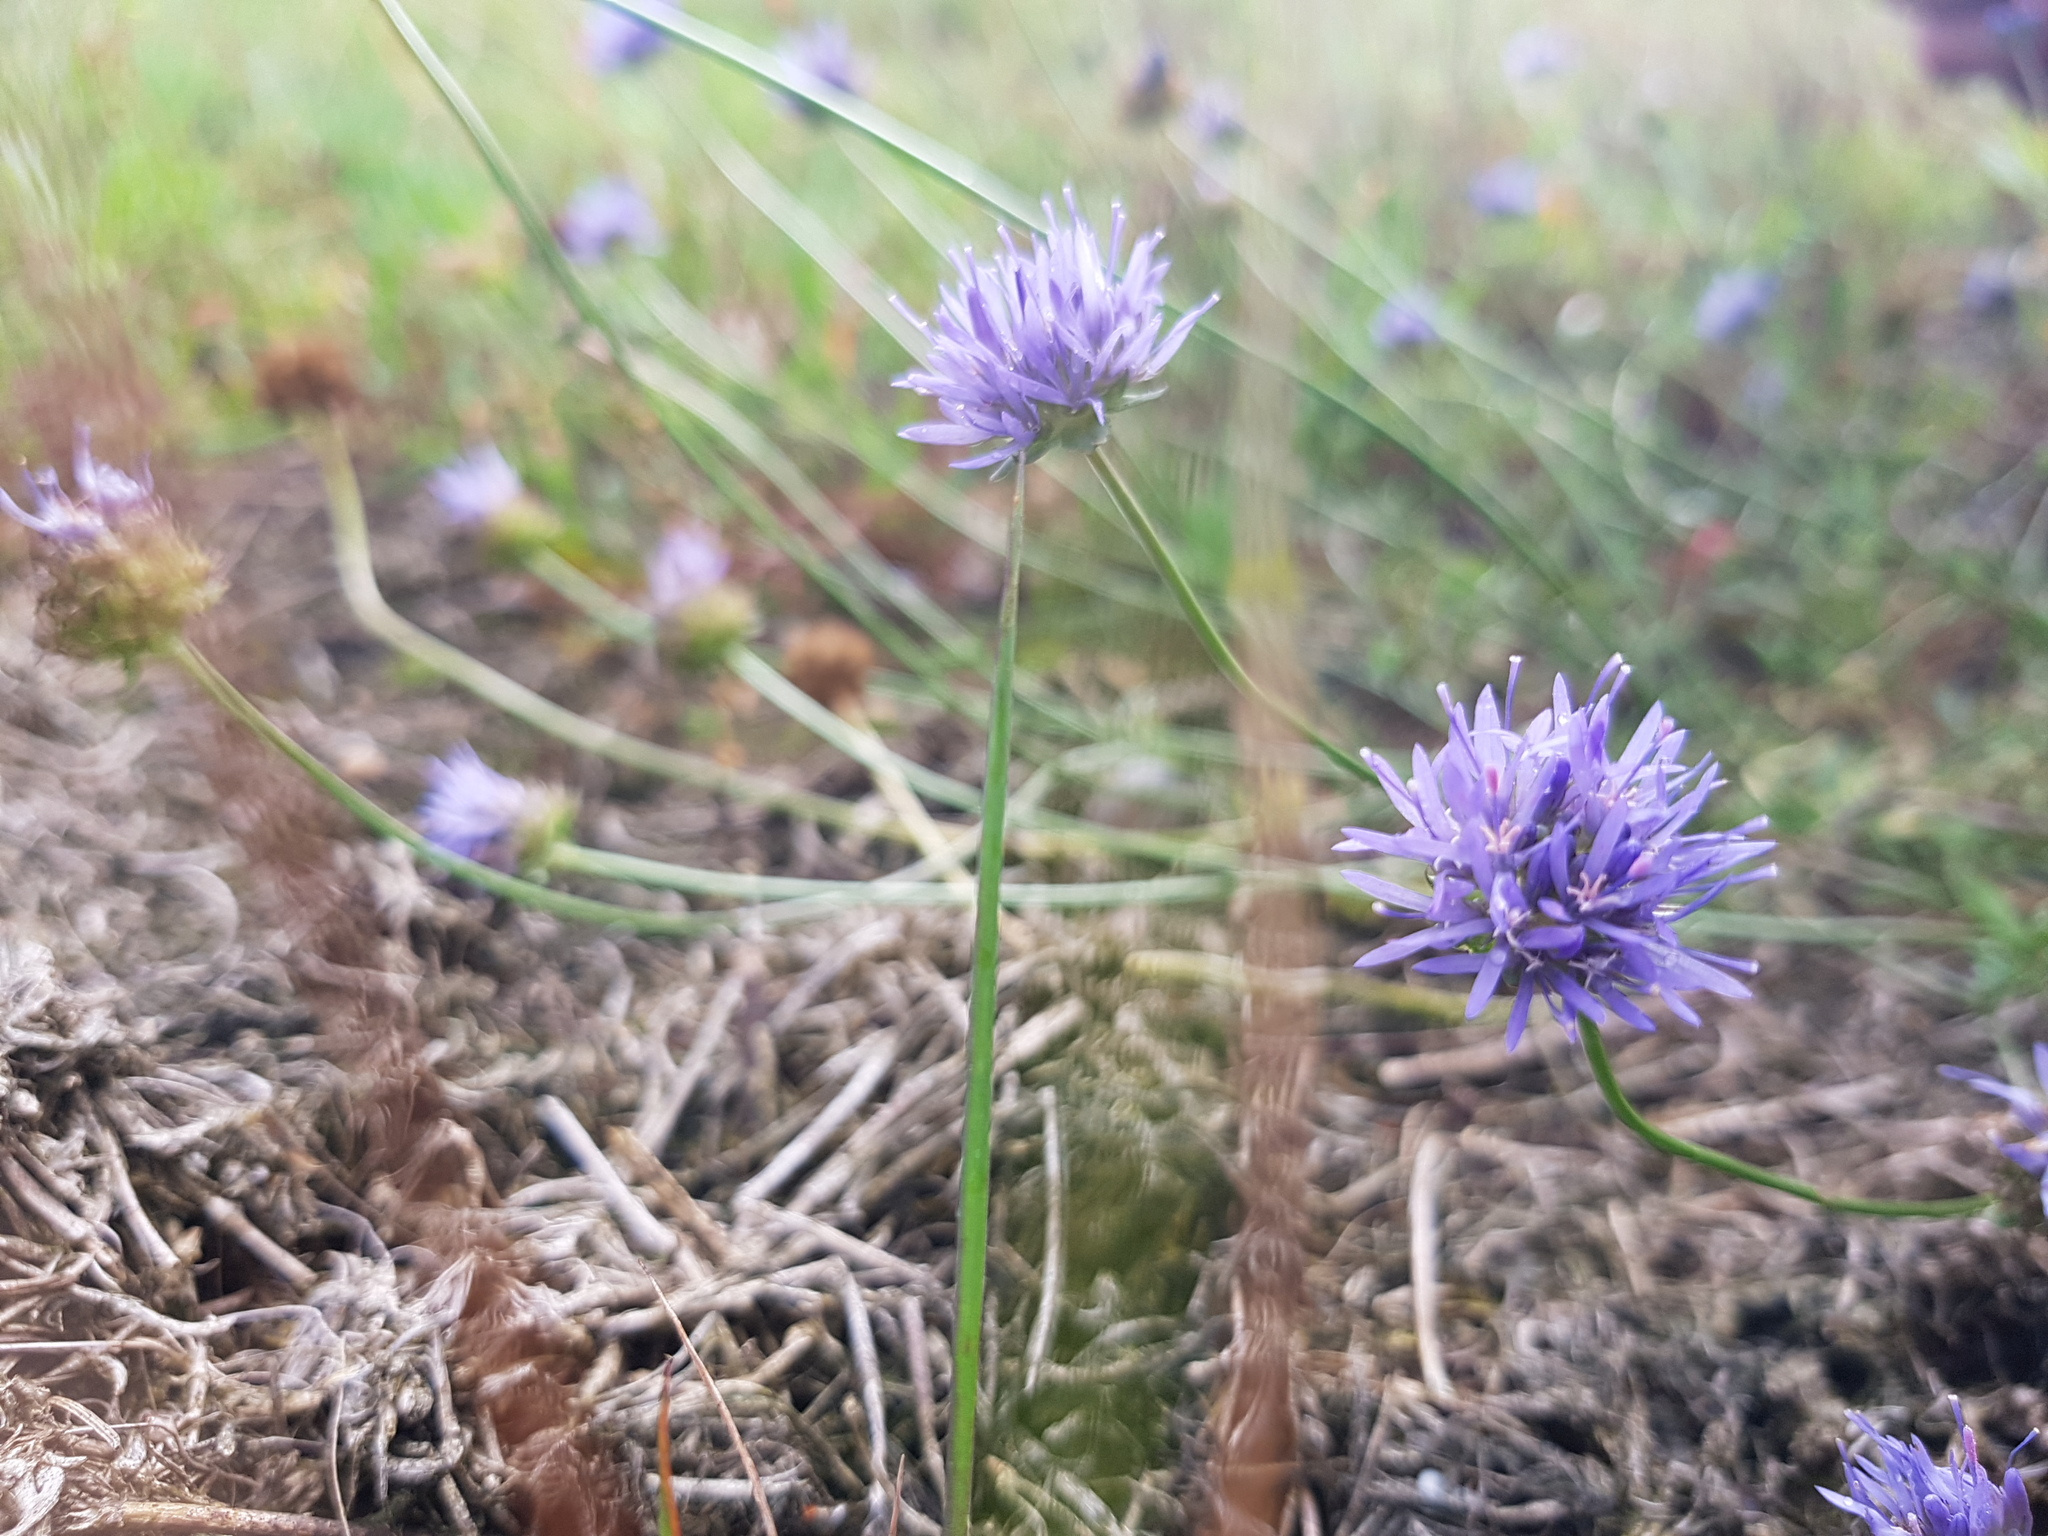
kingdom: Plantae
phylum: Tracheophyta
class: Magnoliopsida
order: Asterales
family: Campanulaceae
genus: Jasione
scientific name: Jasione montana
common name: Sheep's-bit
